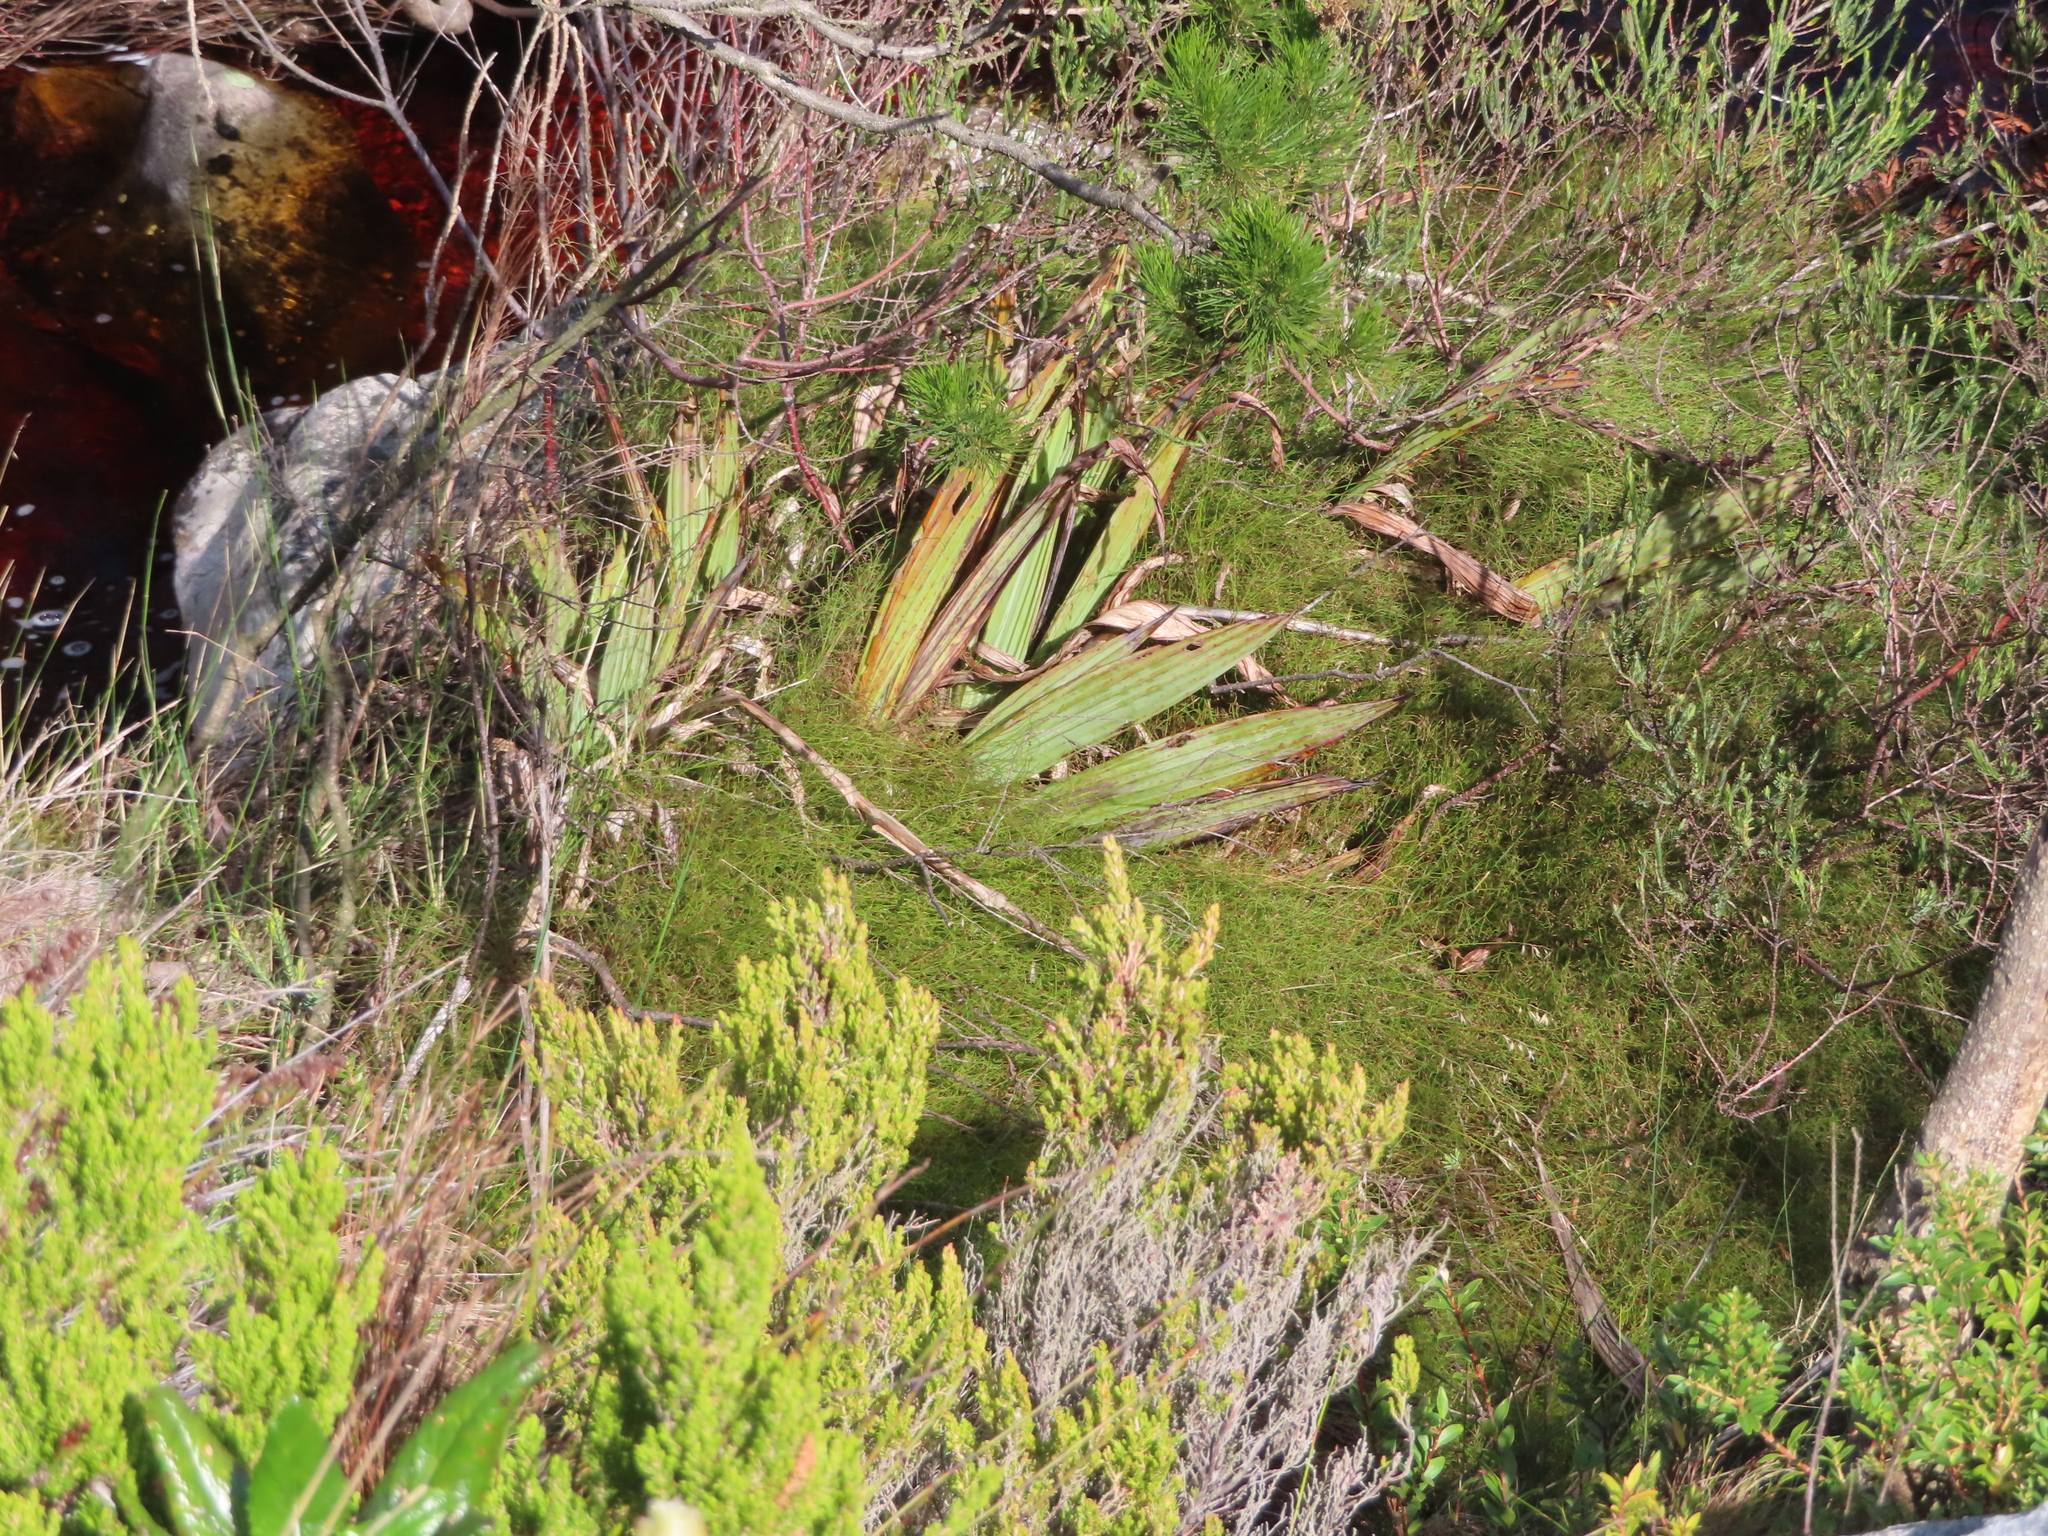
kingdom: Plantae
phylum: Tracheophyta
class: Liliopsida
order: Commelinales
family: Haemodoraceae
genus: Wachendorfia
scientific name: Wachendorfia thyrsiflora
